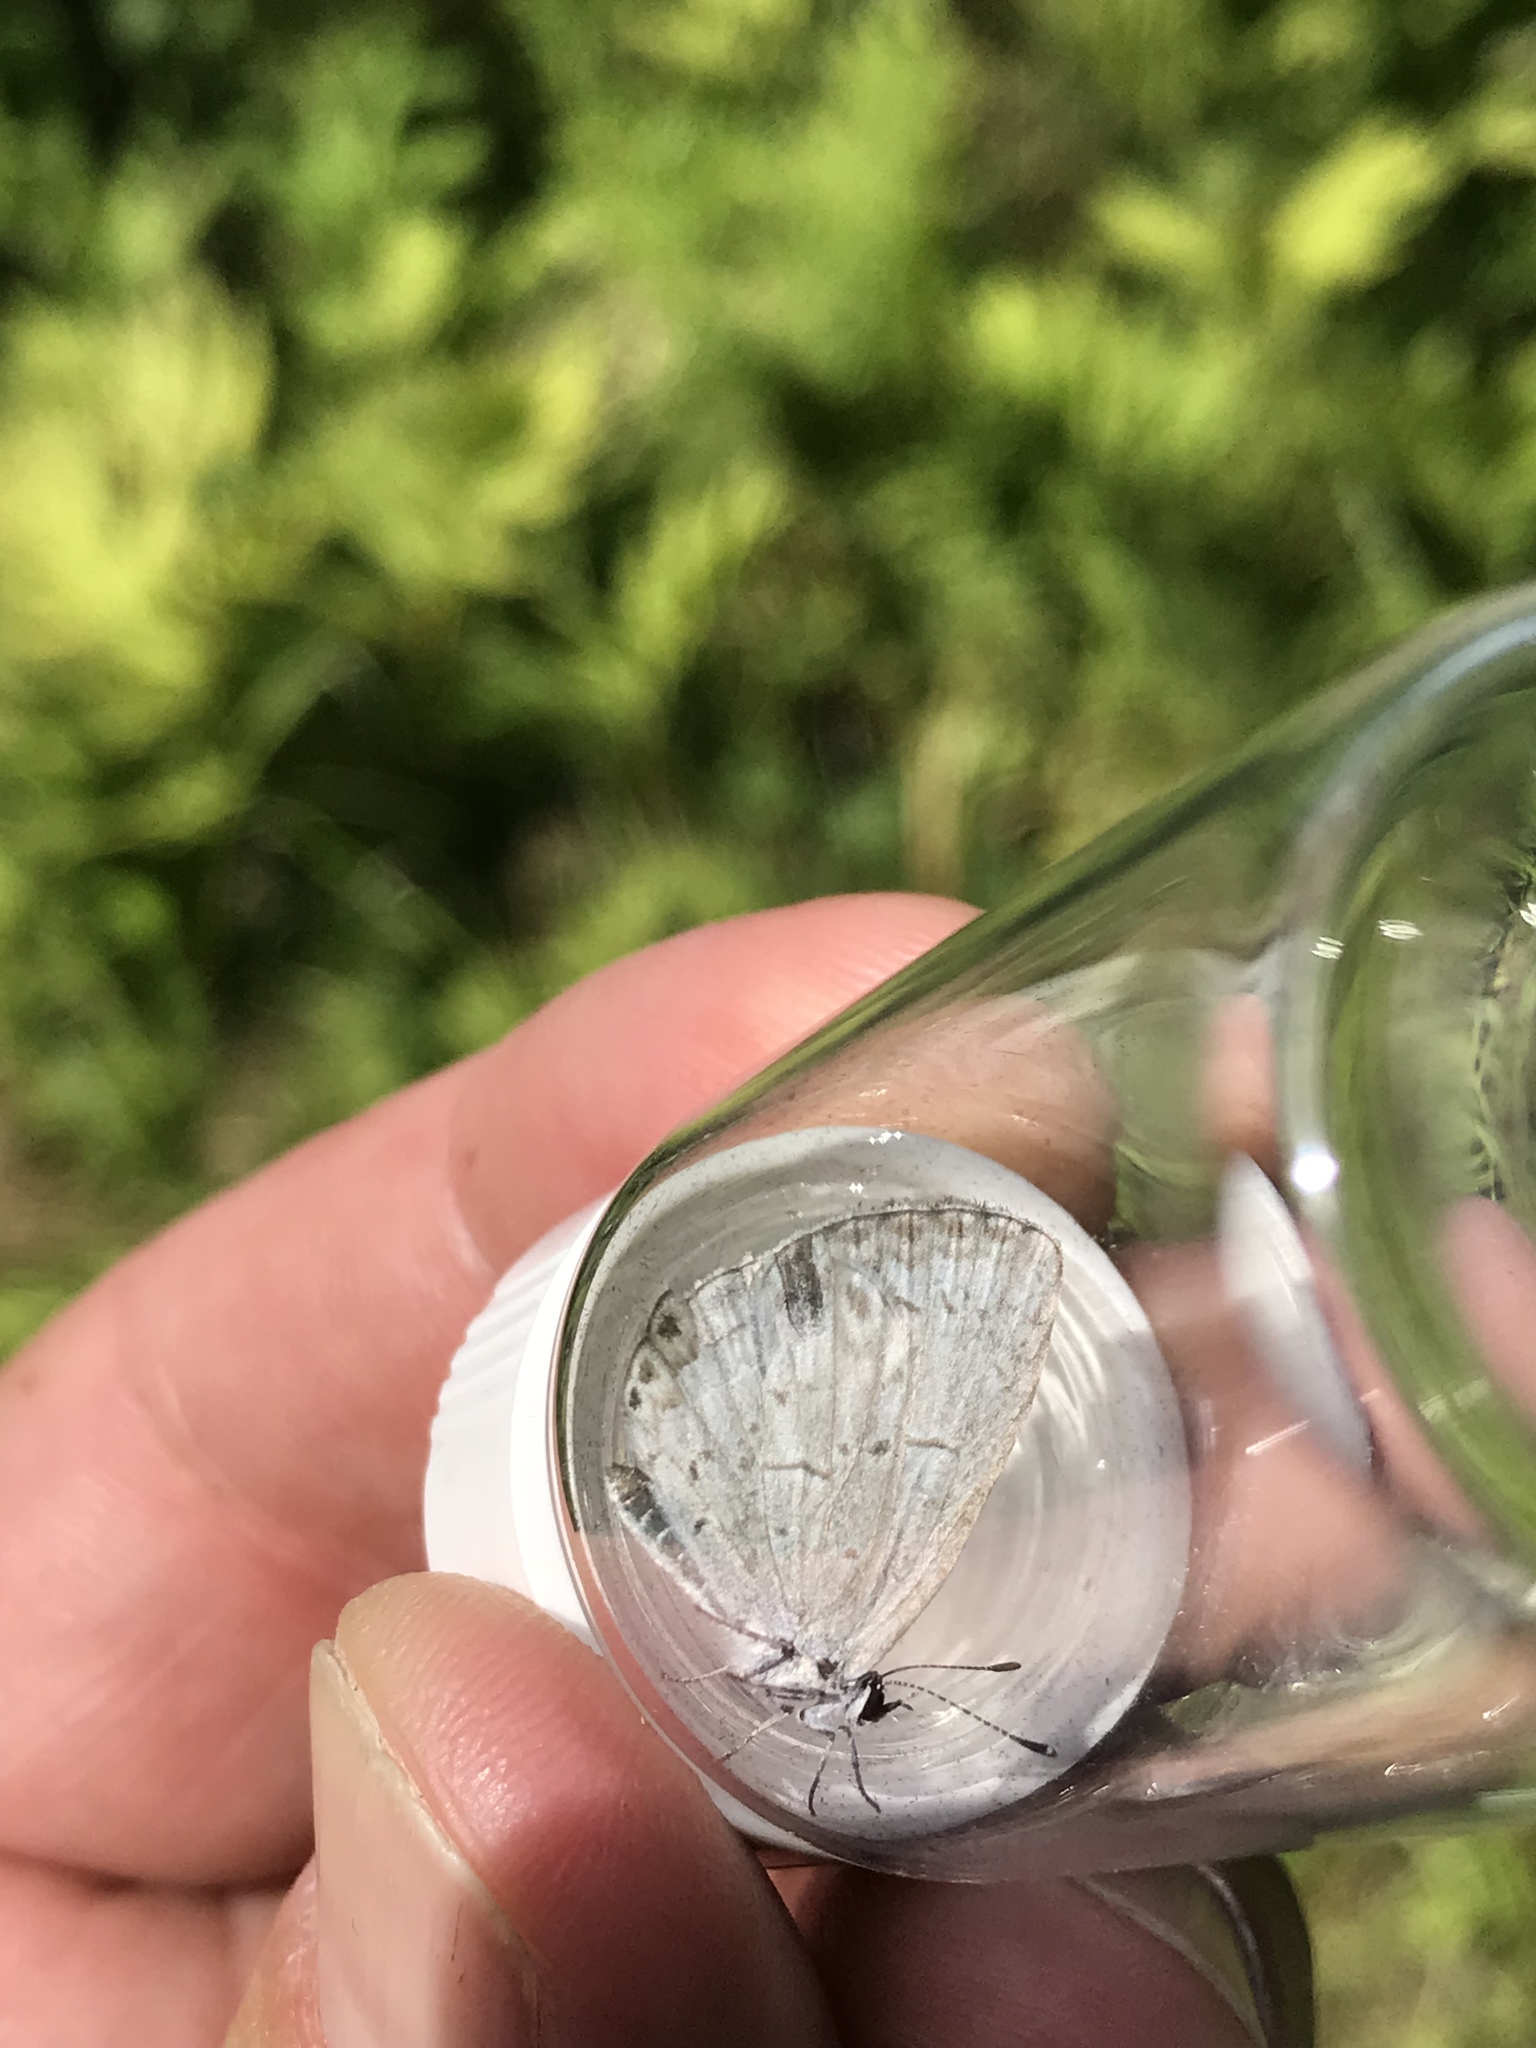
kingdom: Animalia
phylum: Arthropoda
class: Insecta
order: Lepidoptera
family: Lycaenidae
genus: Cyaniris
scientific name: Cyaniris neglecta
